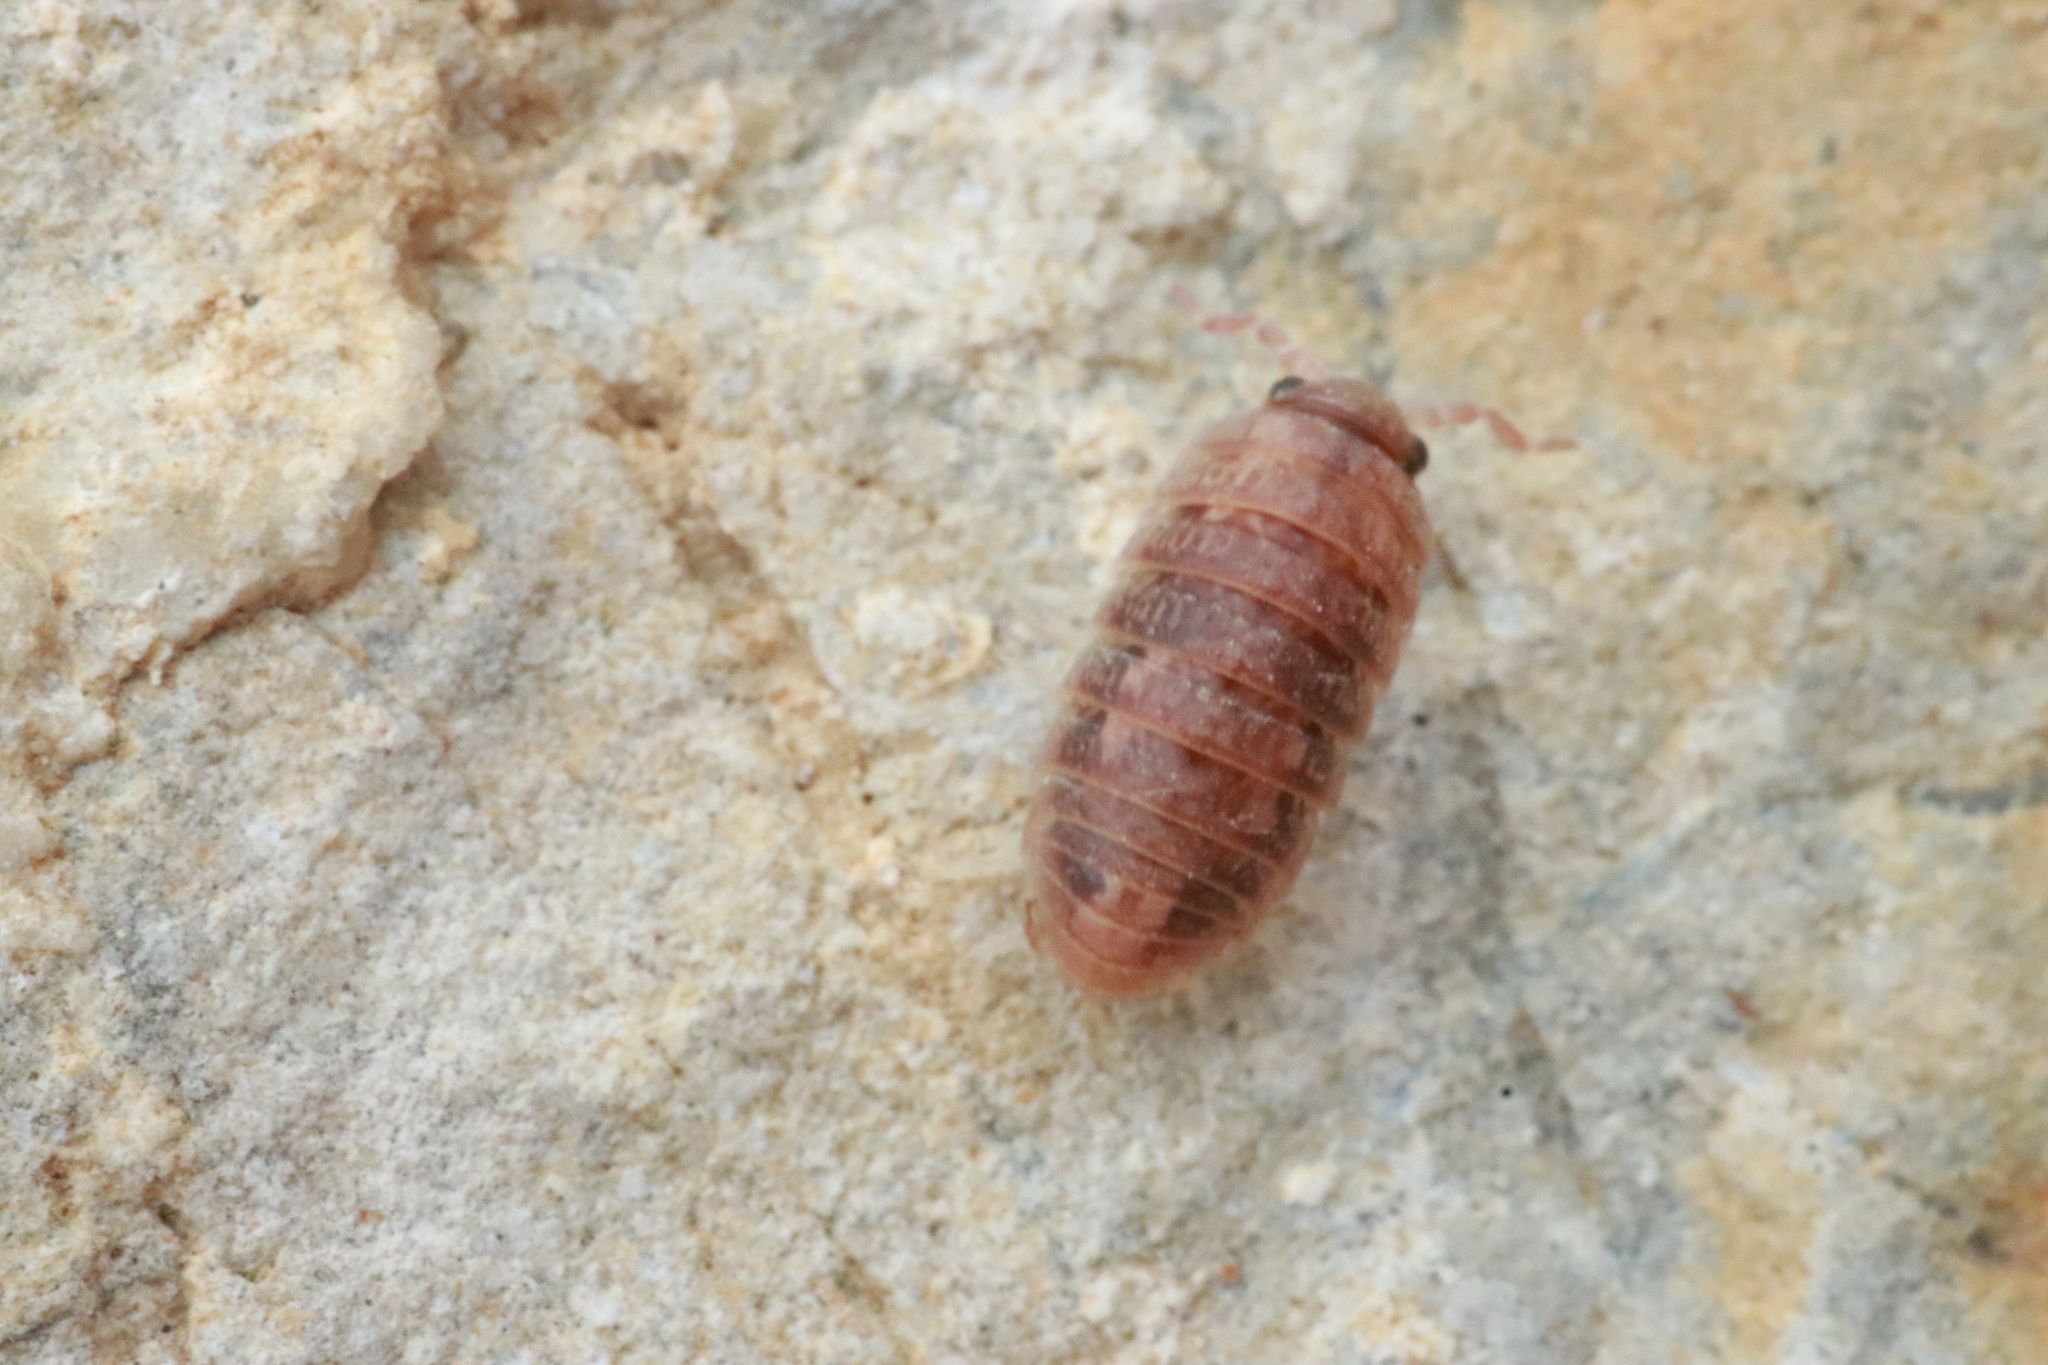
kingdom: Animalia
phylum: Arthropoda
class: Malacostraca
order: Isopoda
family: Tylidae
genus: Tylos
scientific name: Tylos ponticus
